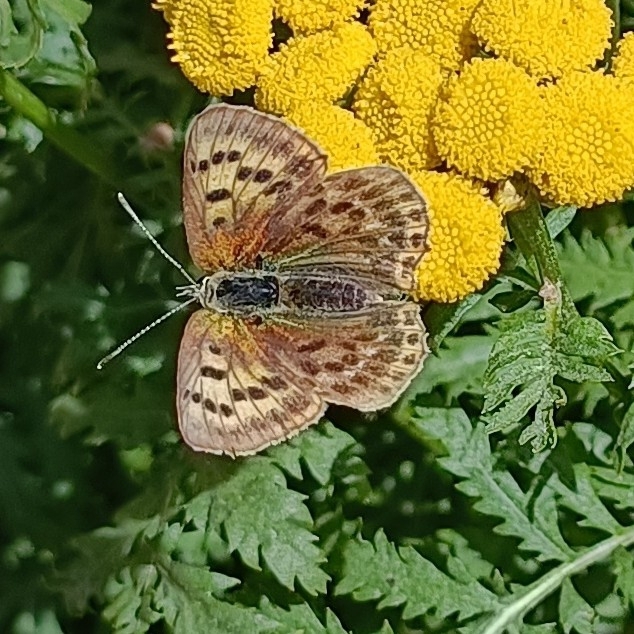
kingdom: Animalia
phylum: Arthropoda
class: Insecta
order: Lepidoptera
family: Lycaenidae
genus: Lycaena
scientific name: Lycaena virgaureae
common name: Scarce copper
